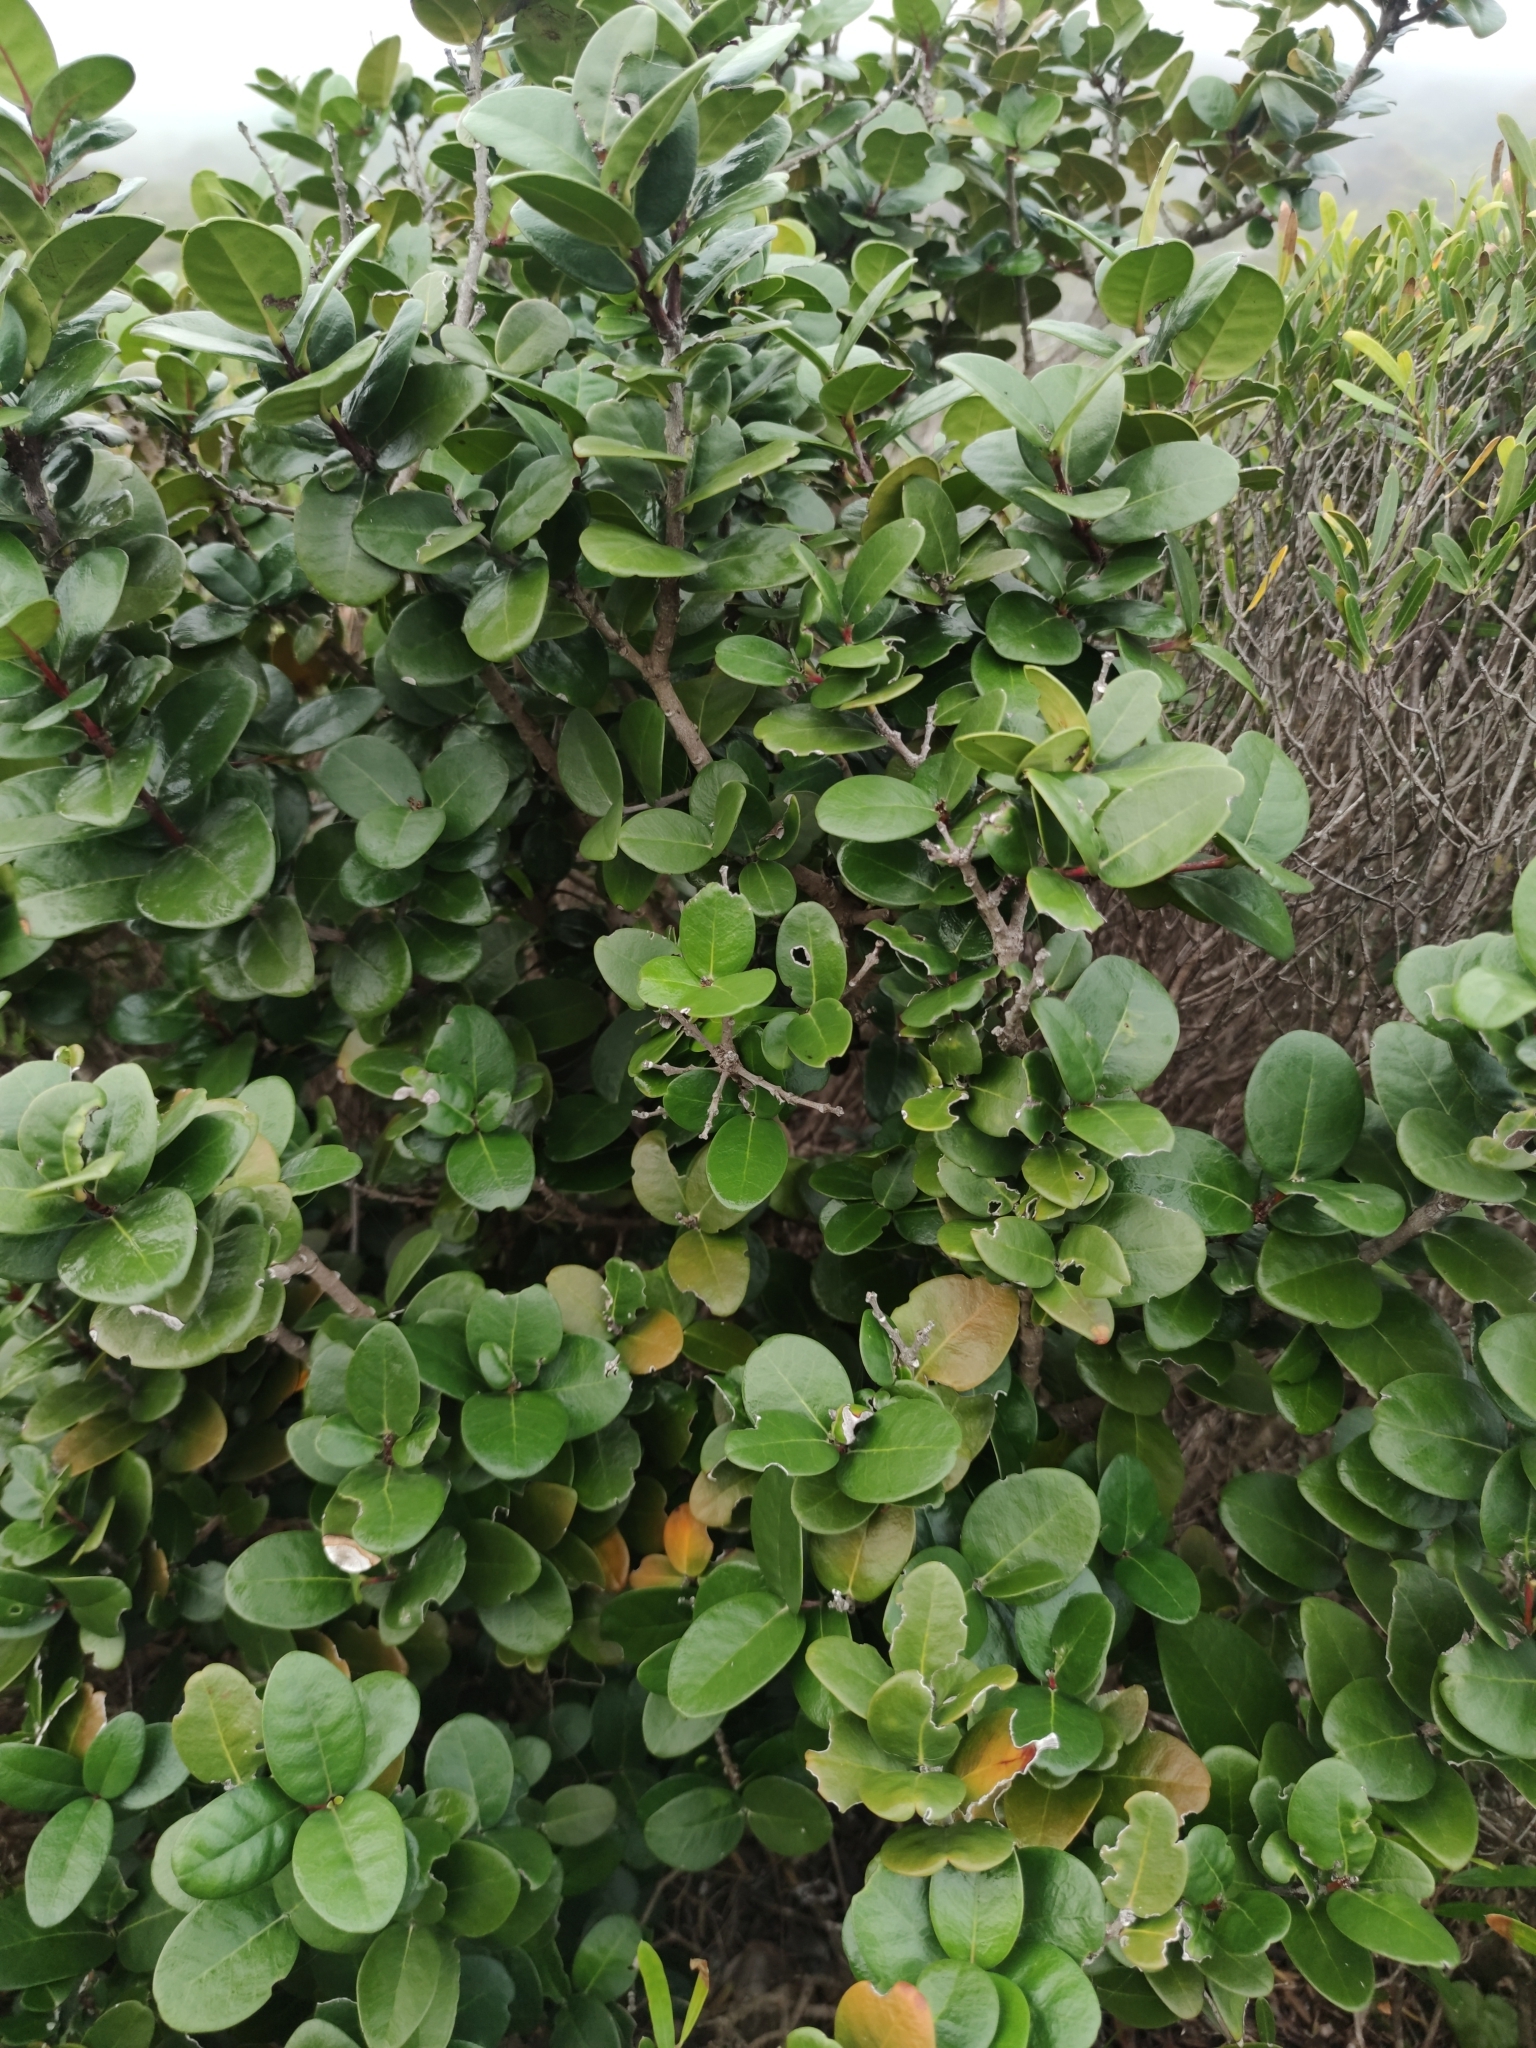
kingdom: Plantae
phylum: Tracheophyta
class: Magnoliopsida
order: Celastrales
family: Celastraceae
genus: Maurocenia
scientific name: Maurocenia frangula
